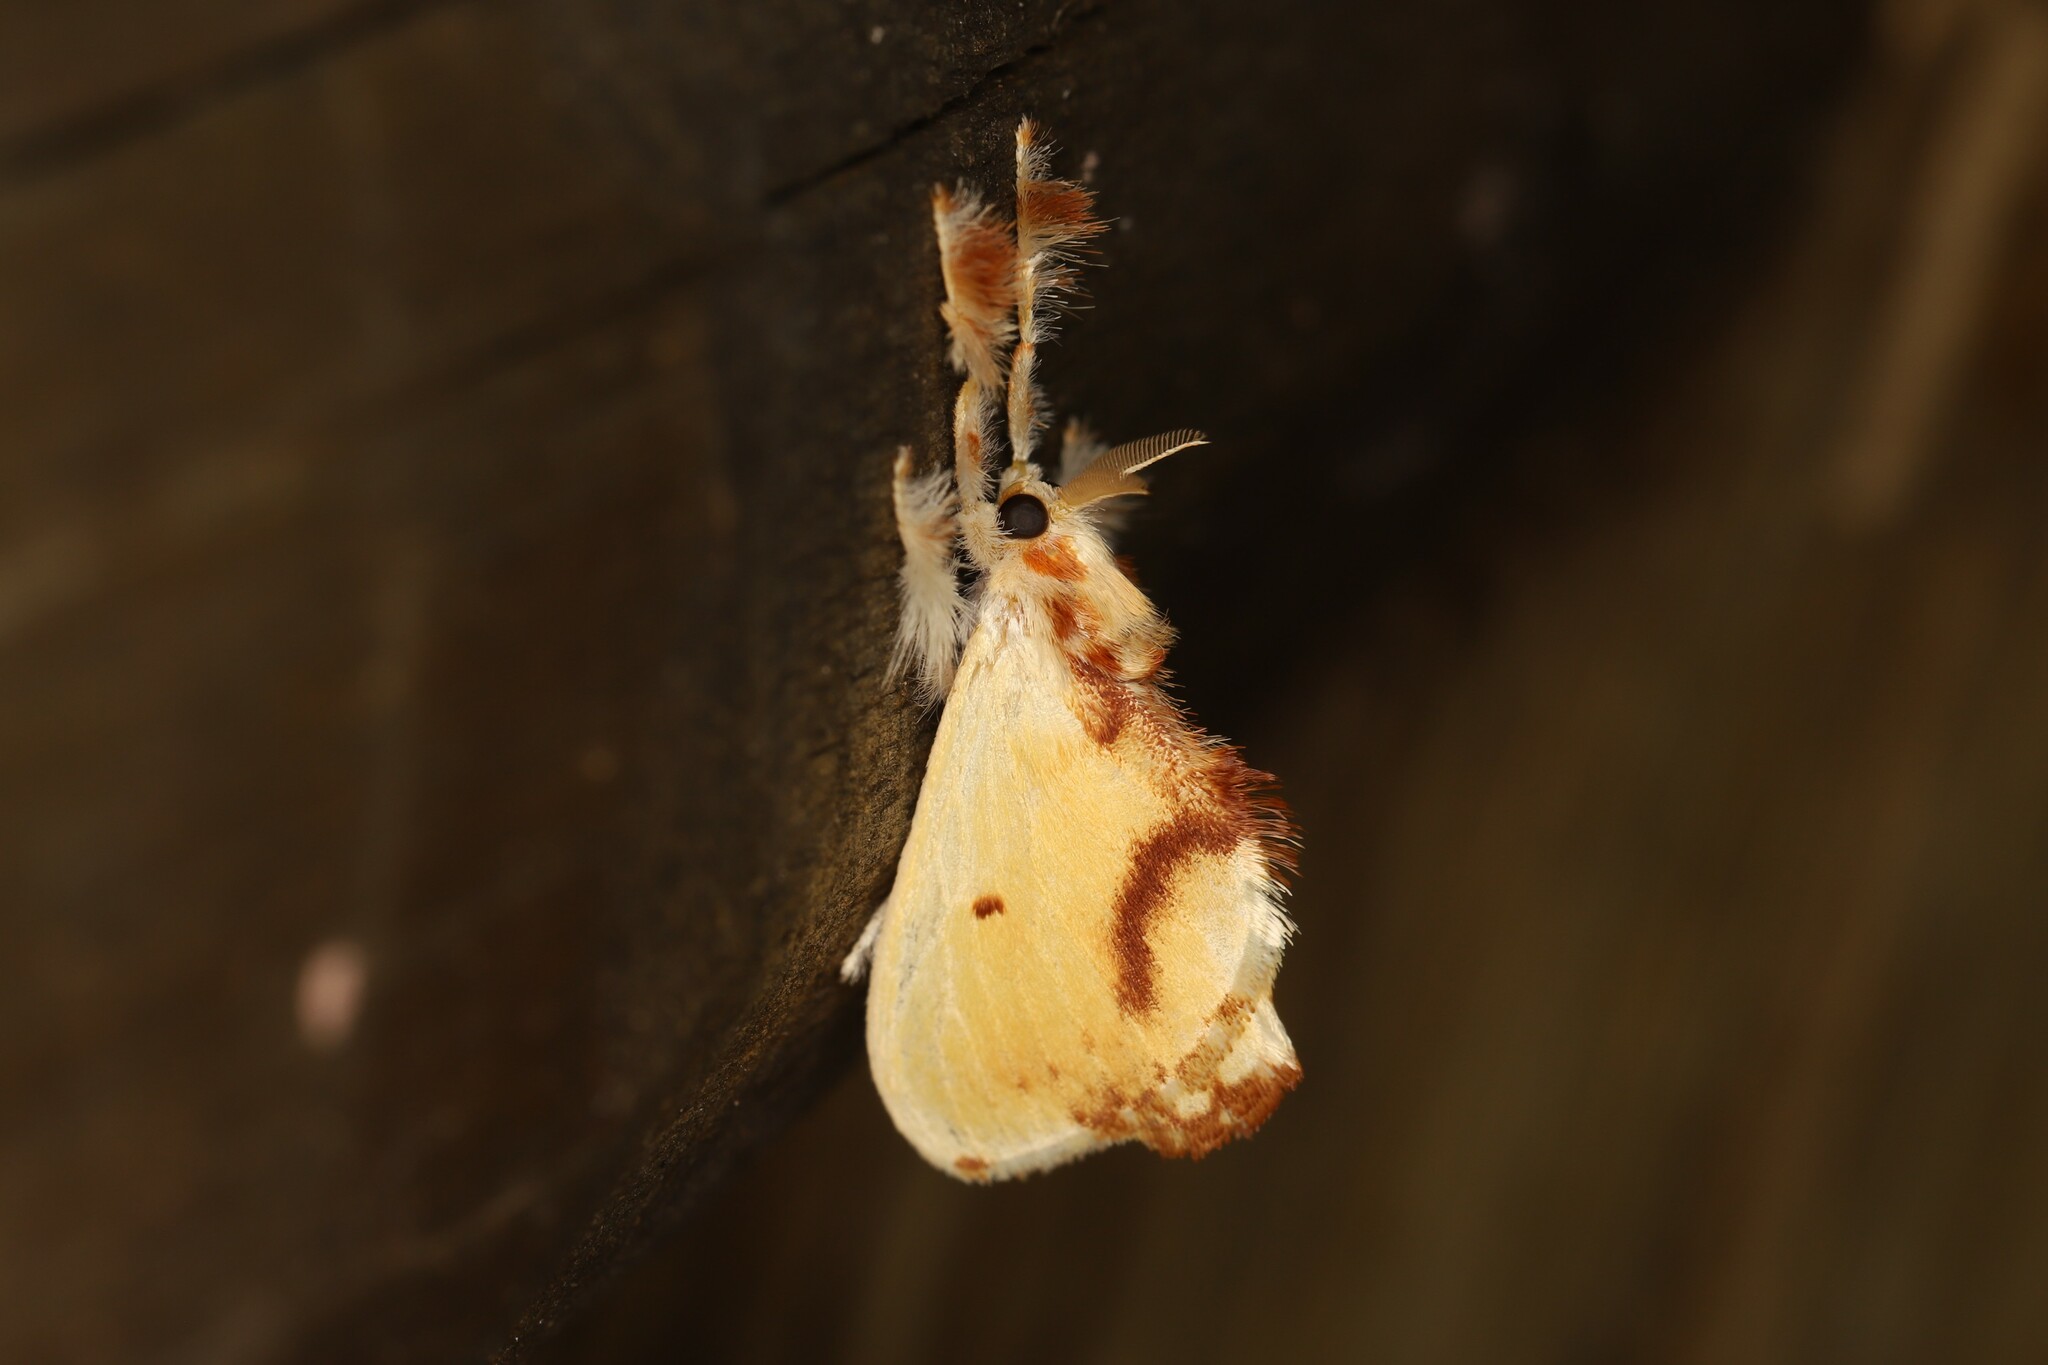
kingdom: Animalia
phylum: Arthropoda
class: Insecta
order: Lepidoptera
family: Dalceridae
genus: Acraga
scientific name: Acraga leberna
